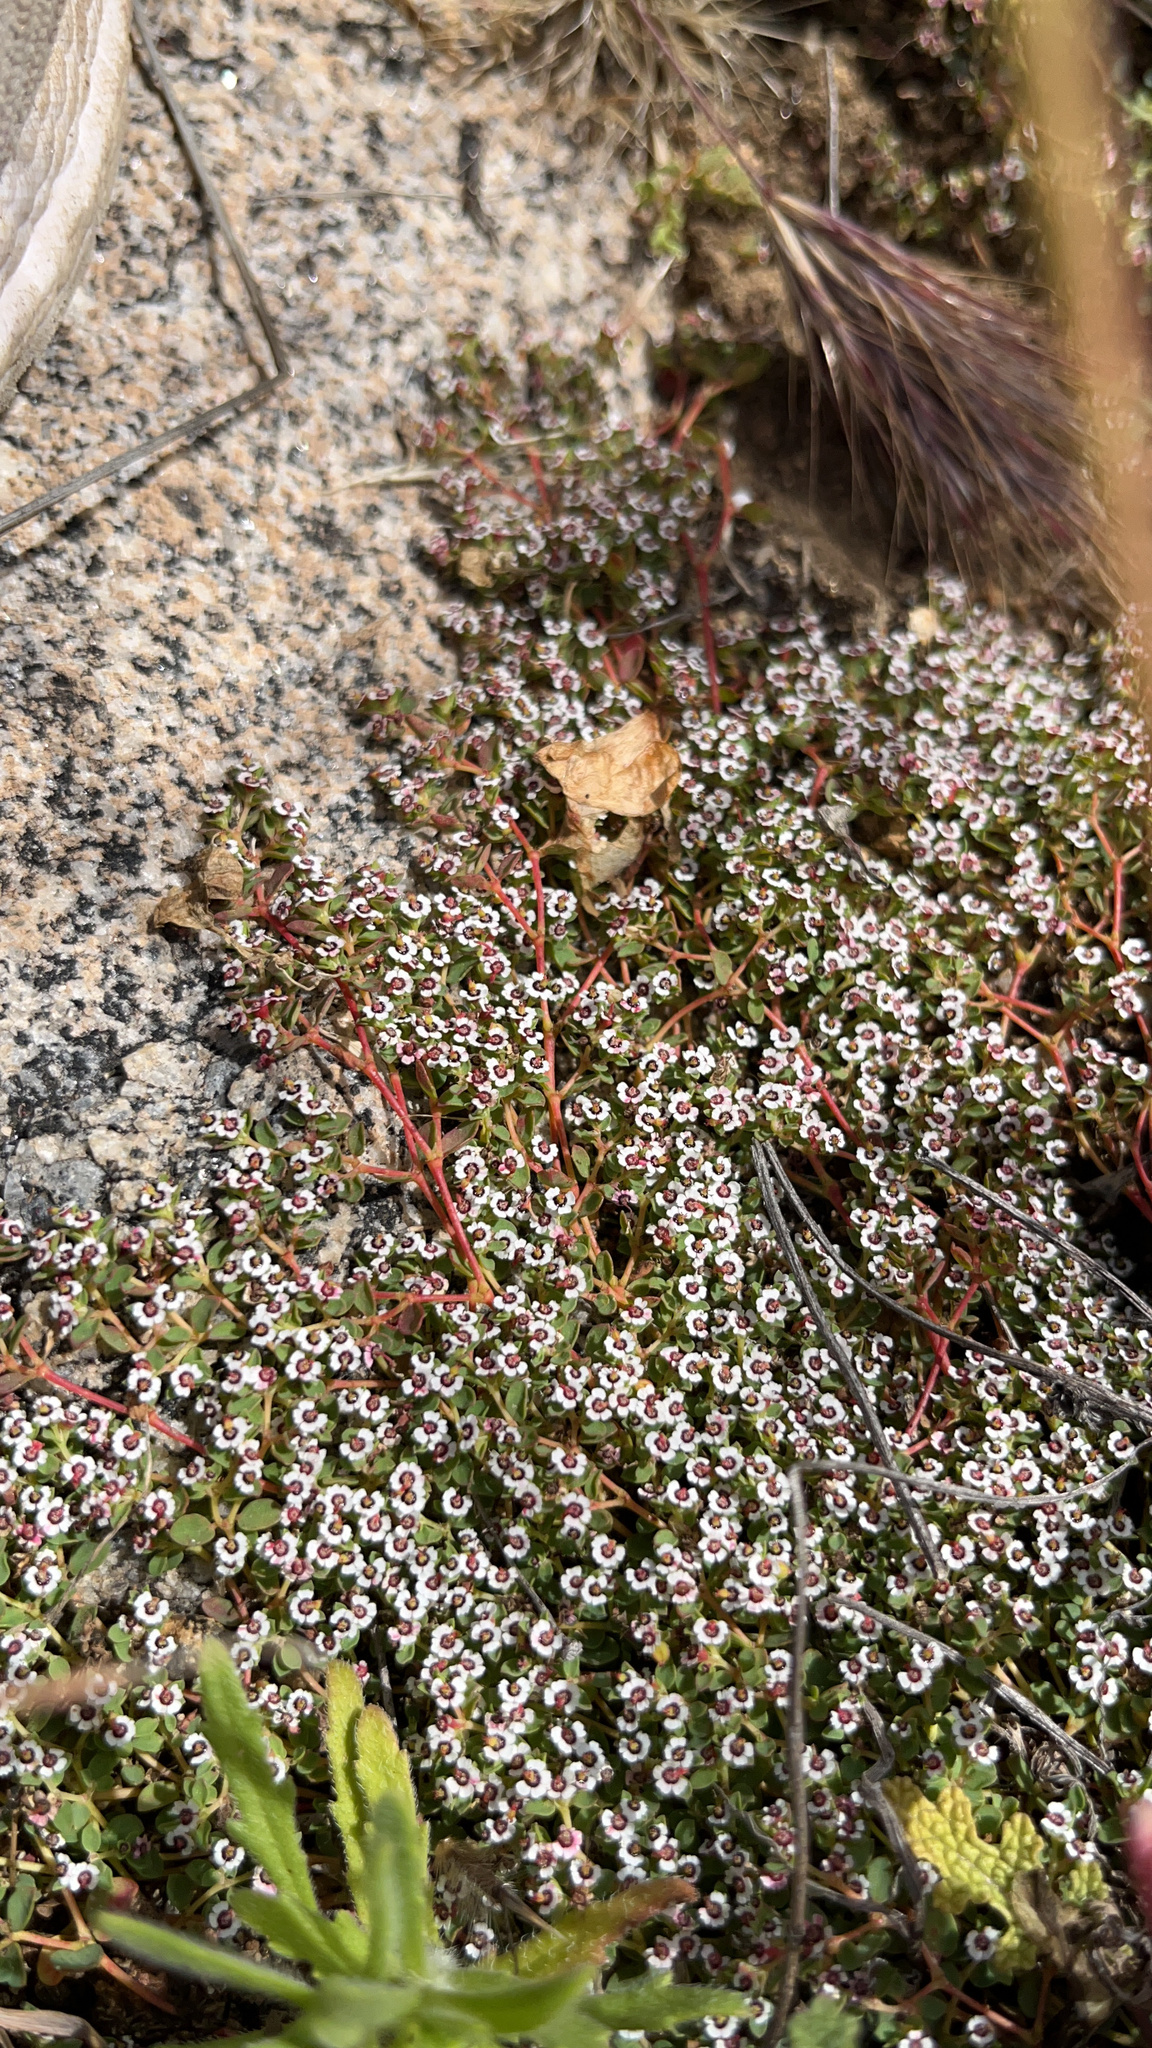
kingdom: Plantae
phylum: Tracheophyta
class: Magnoliopsida
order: Malpighiales
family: Euphorbiaceae
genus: Euphorbia
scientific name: Euphorbia polycarpa
